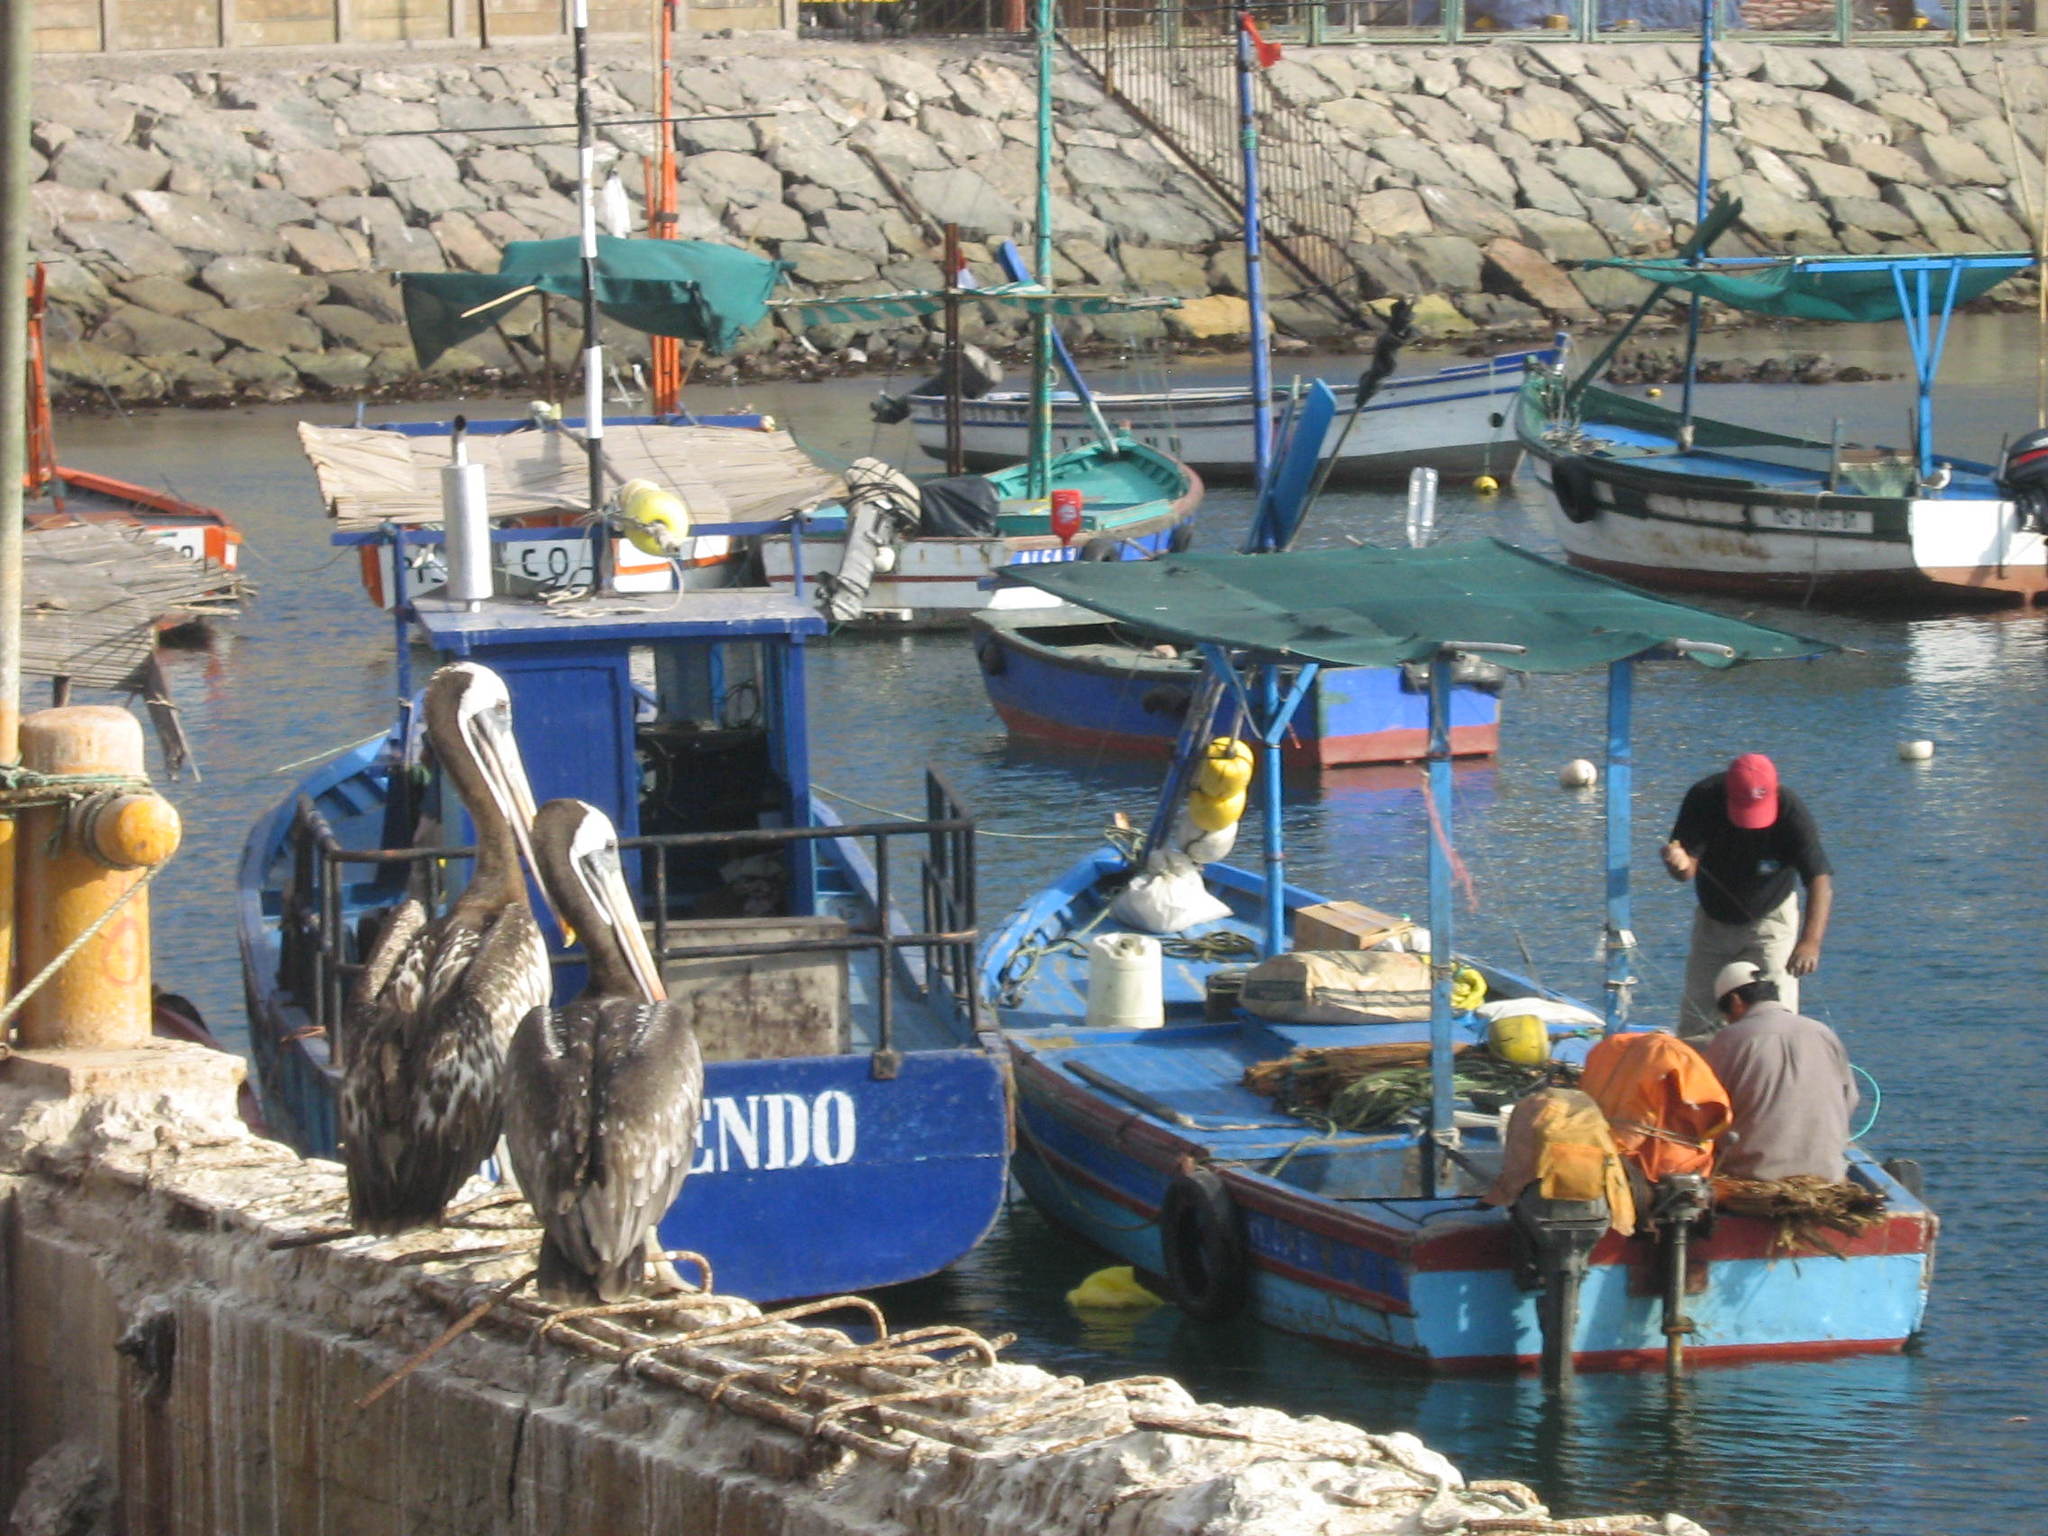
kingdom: Animalia
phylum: Chordata
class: Aves
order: Pelecaniformes
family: Pelecanidae
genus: Pelecanus
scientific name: Pelecanus thagus
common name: Peruvian pelican
